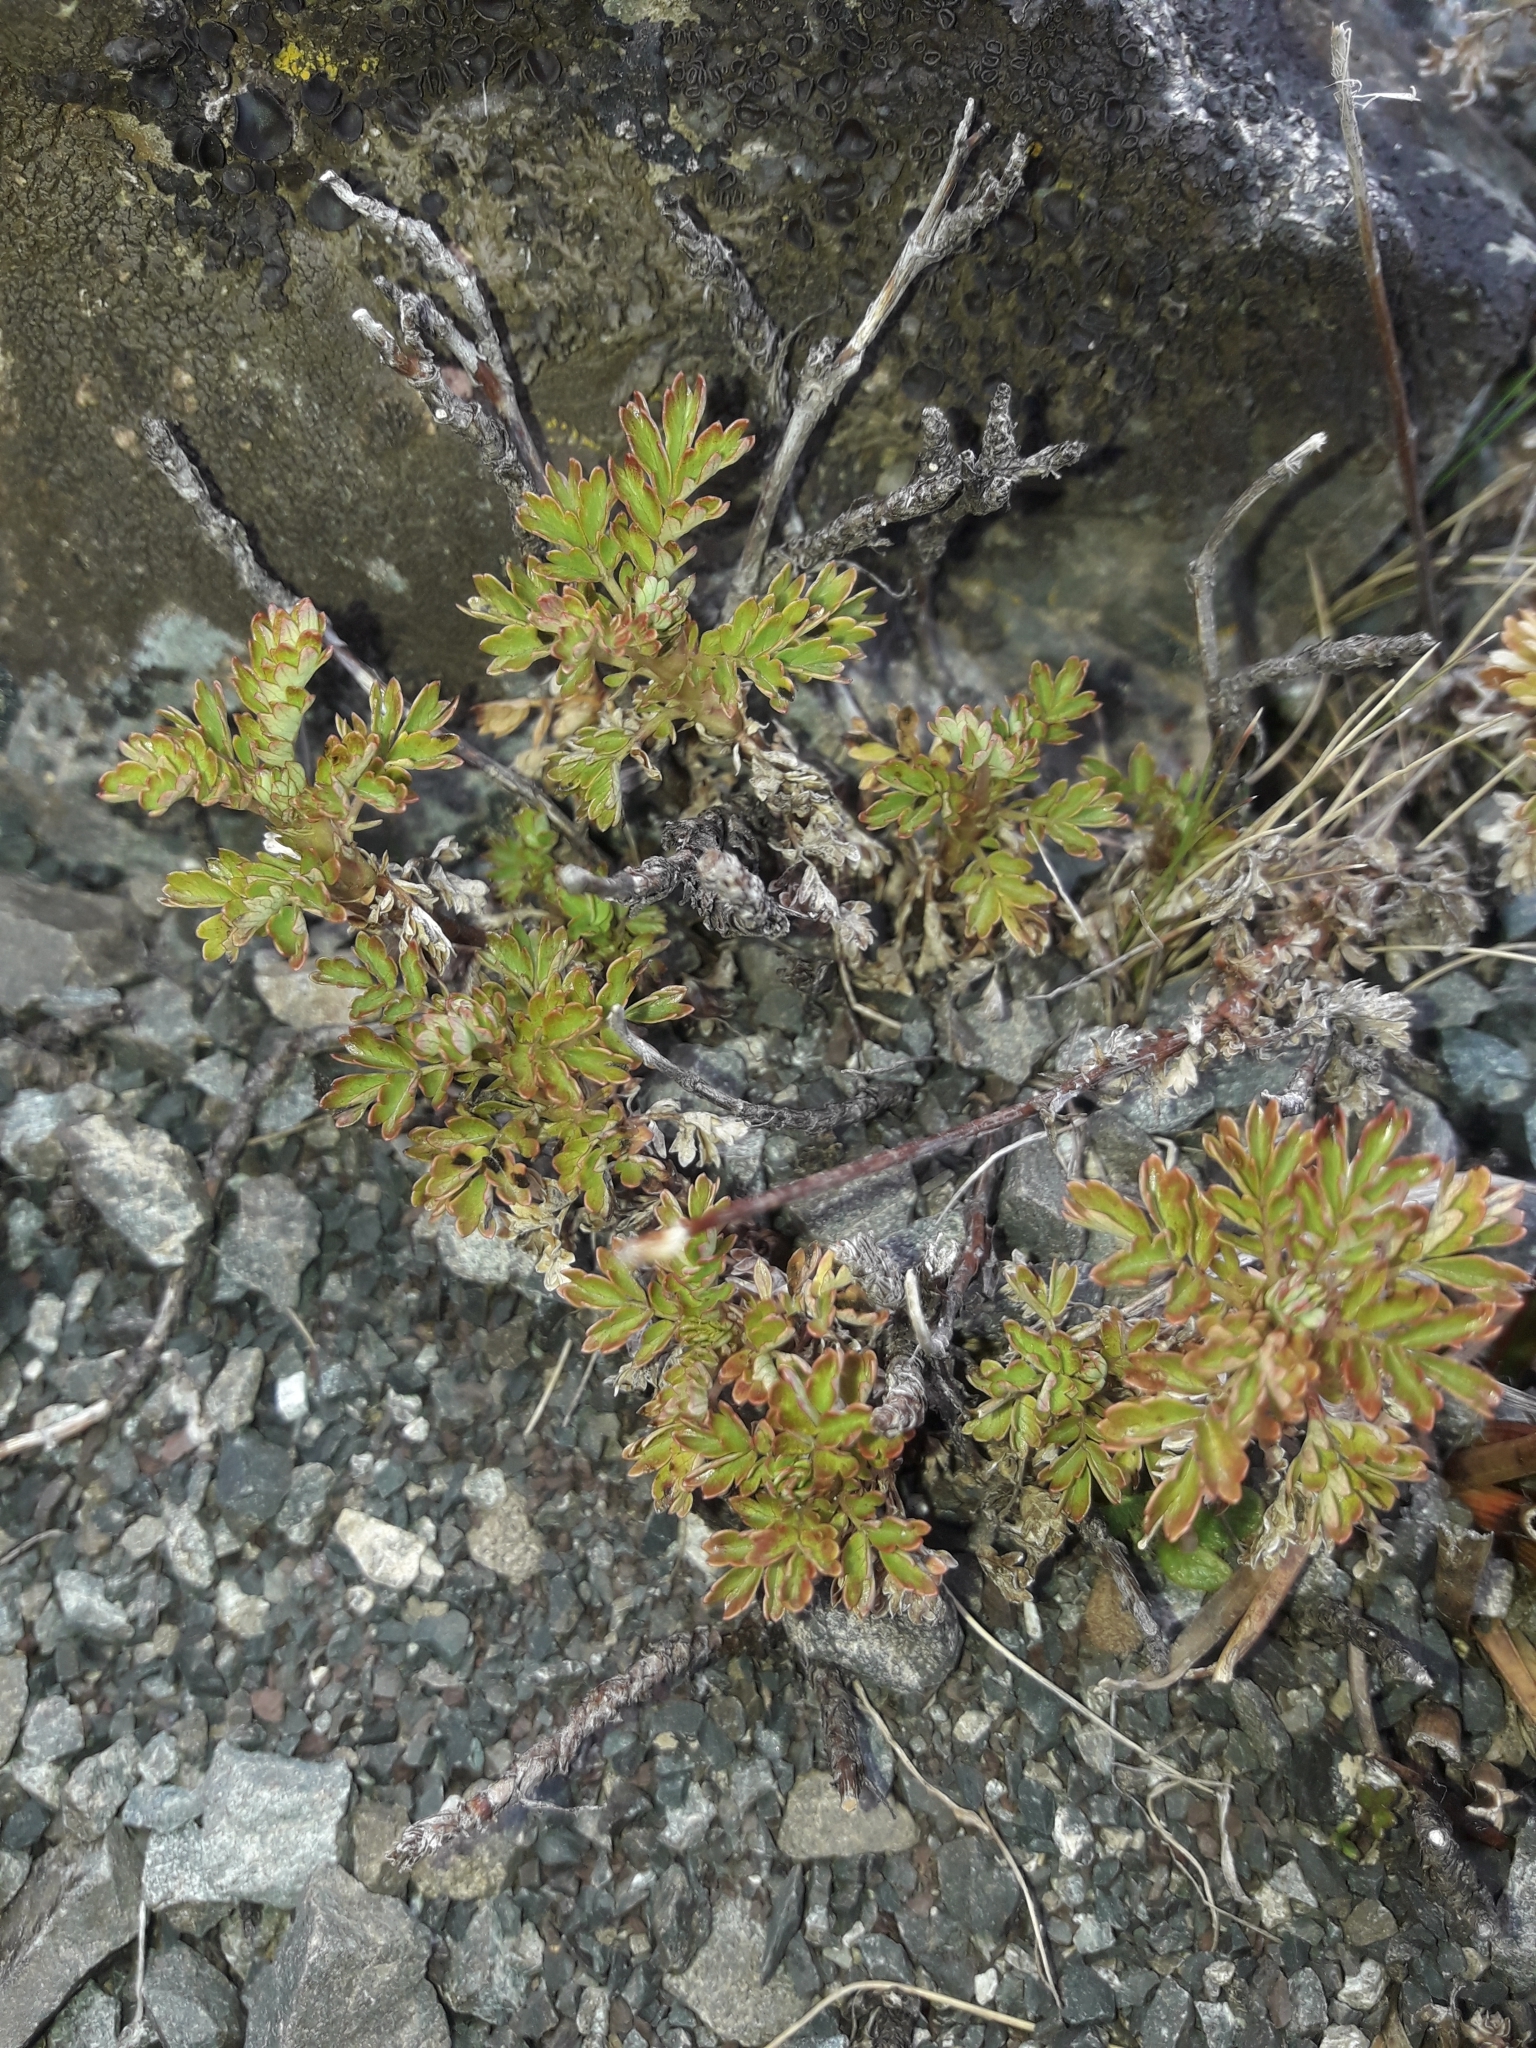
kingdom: Plantae
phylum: Tracheophyta
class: Magnoliopsida
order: Rosales
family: Rosaceae
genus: Acaena
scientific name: Acaena glabra
